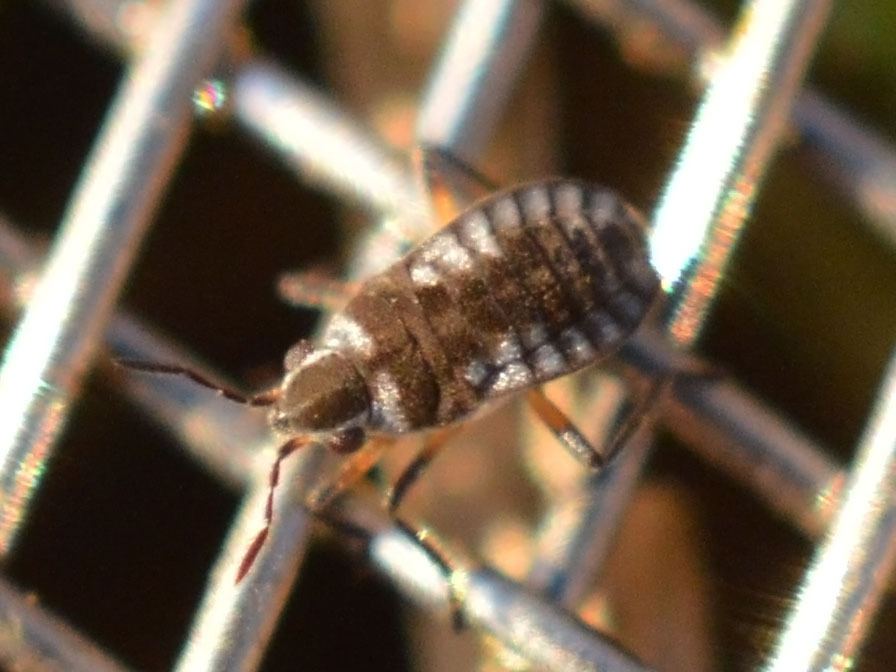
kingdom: Animalia
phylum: Arthropoda
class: Insecta
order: Hemiptera
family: Veliidae
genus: Microvelia
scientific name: Microvelia reticulata
